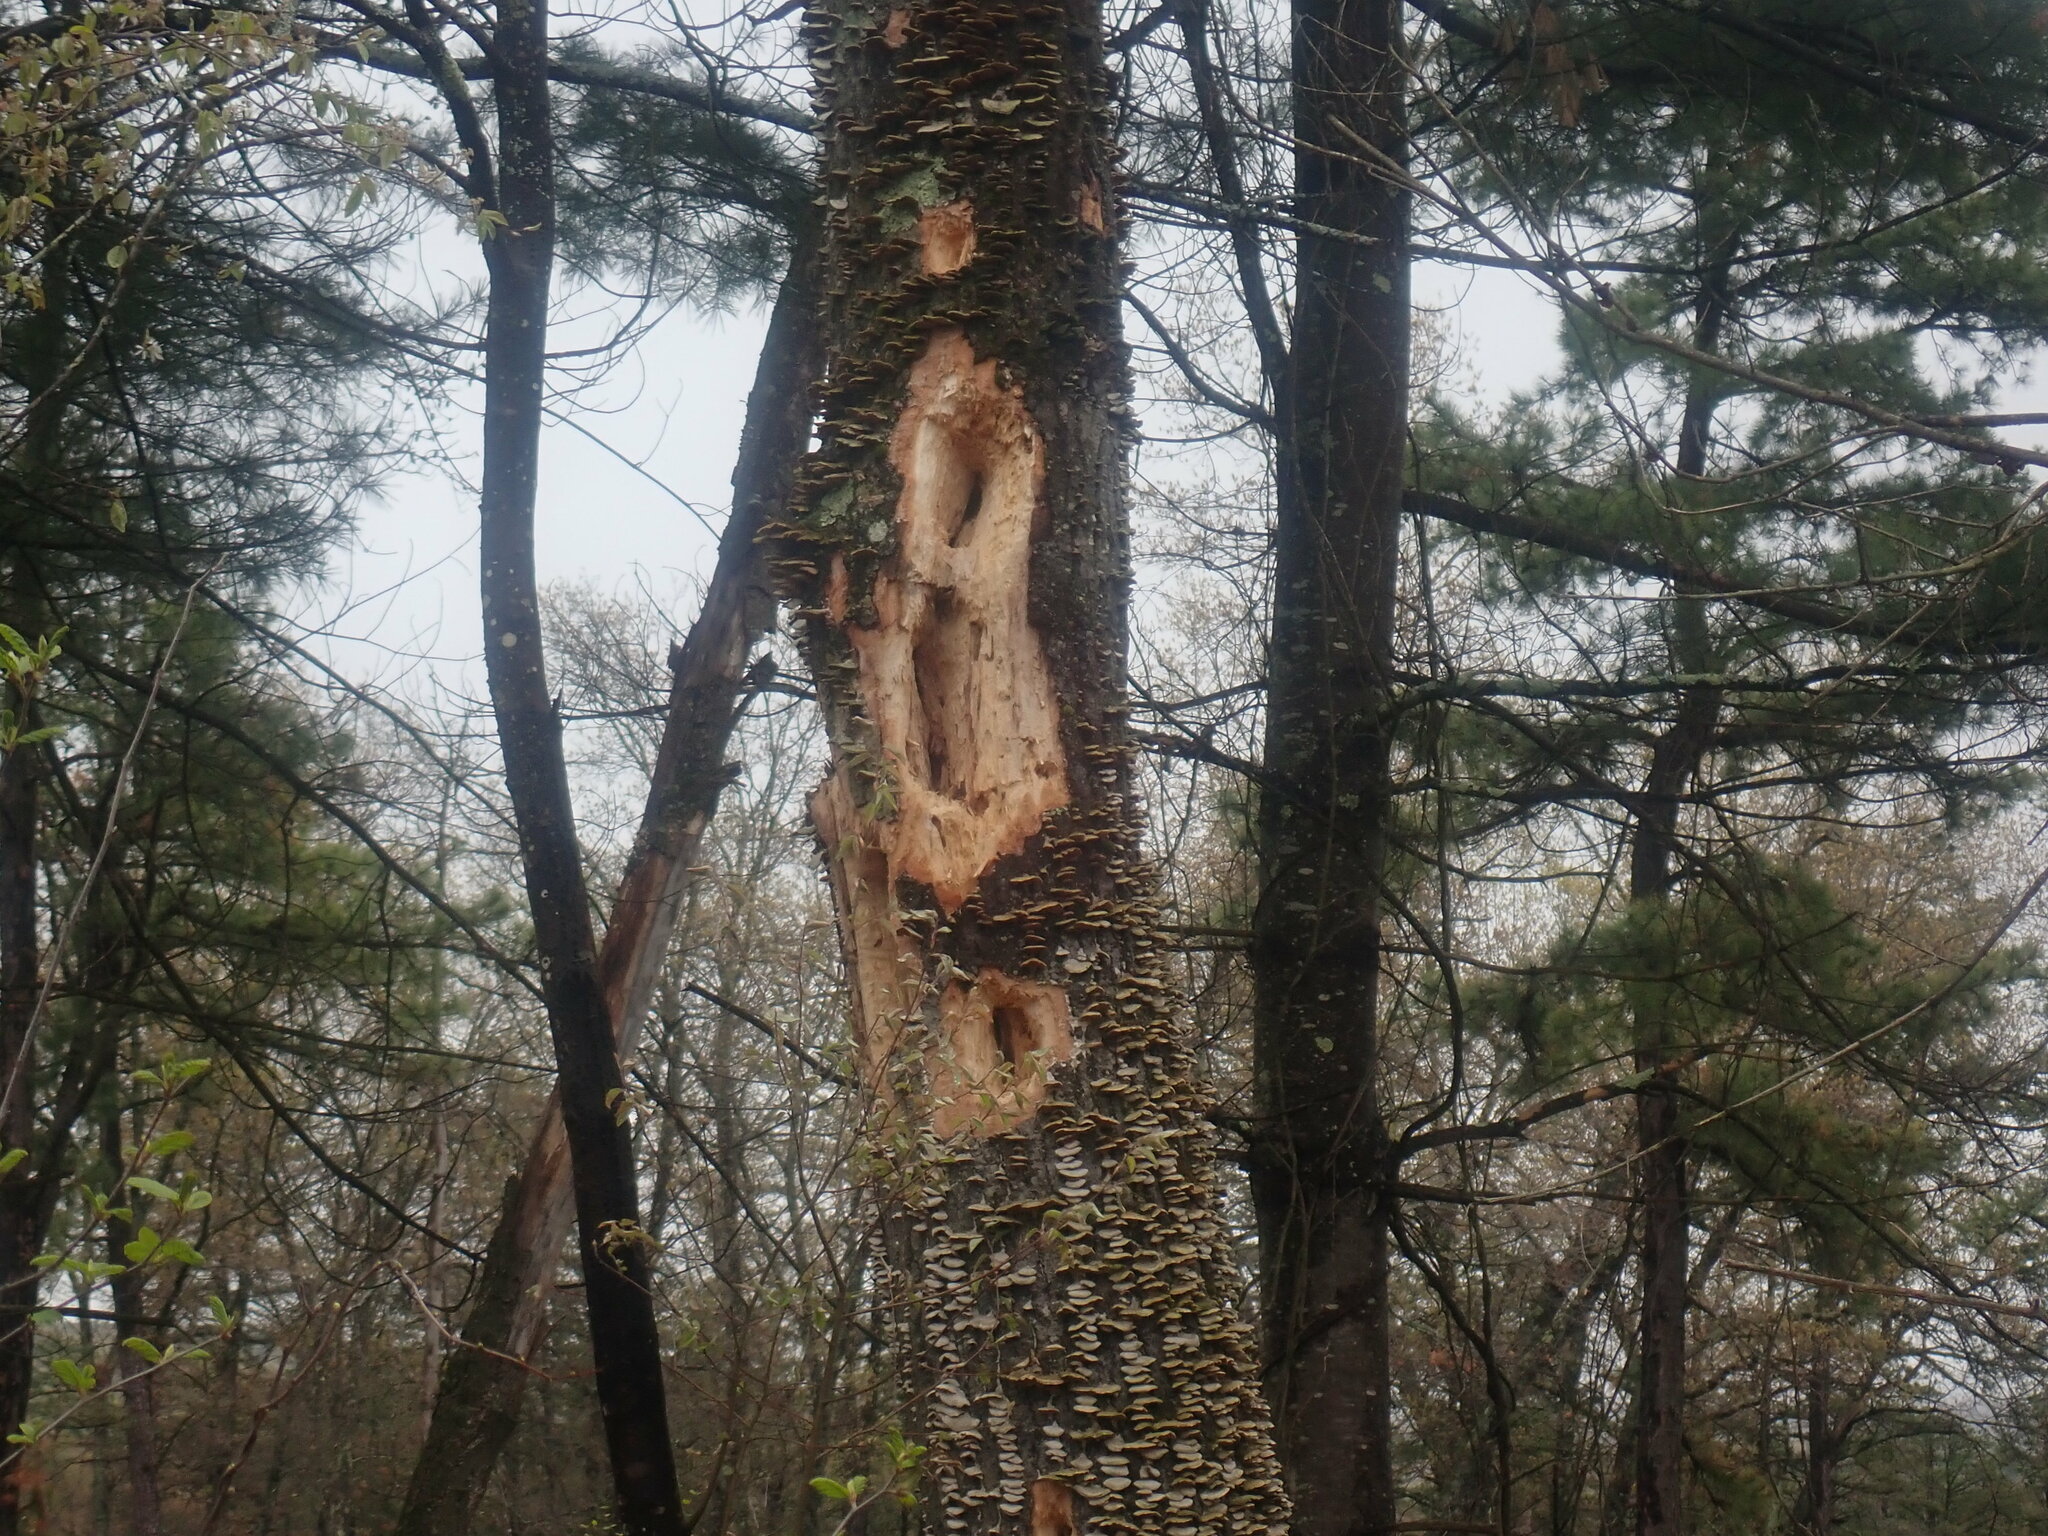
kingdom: Animalia
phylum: Chordata
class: Aves
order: Piciformes
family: Picidae
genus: Dryocopus
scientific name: Dryocopus pileatus
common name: Pileated woodpecker
